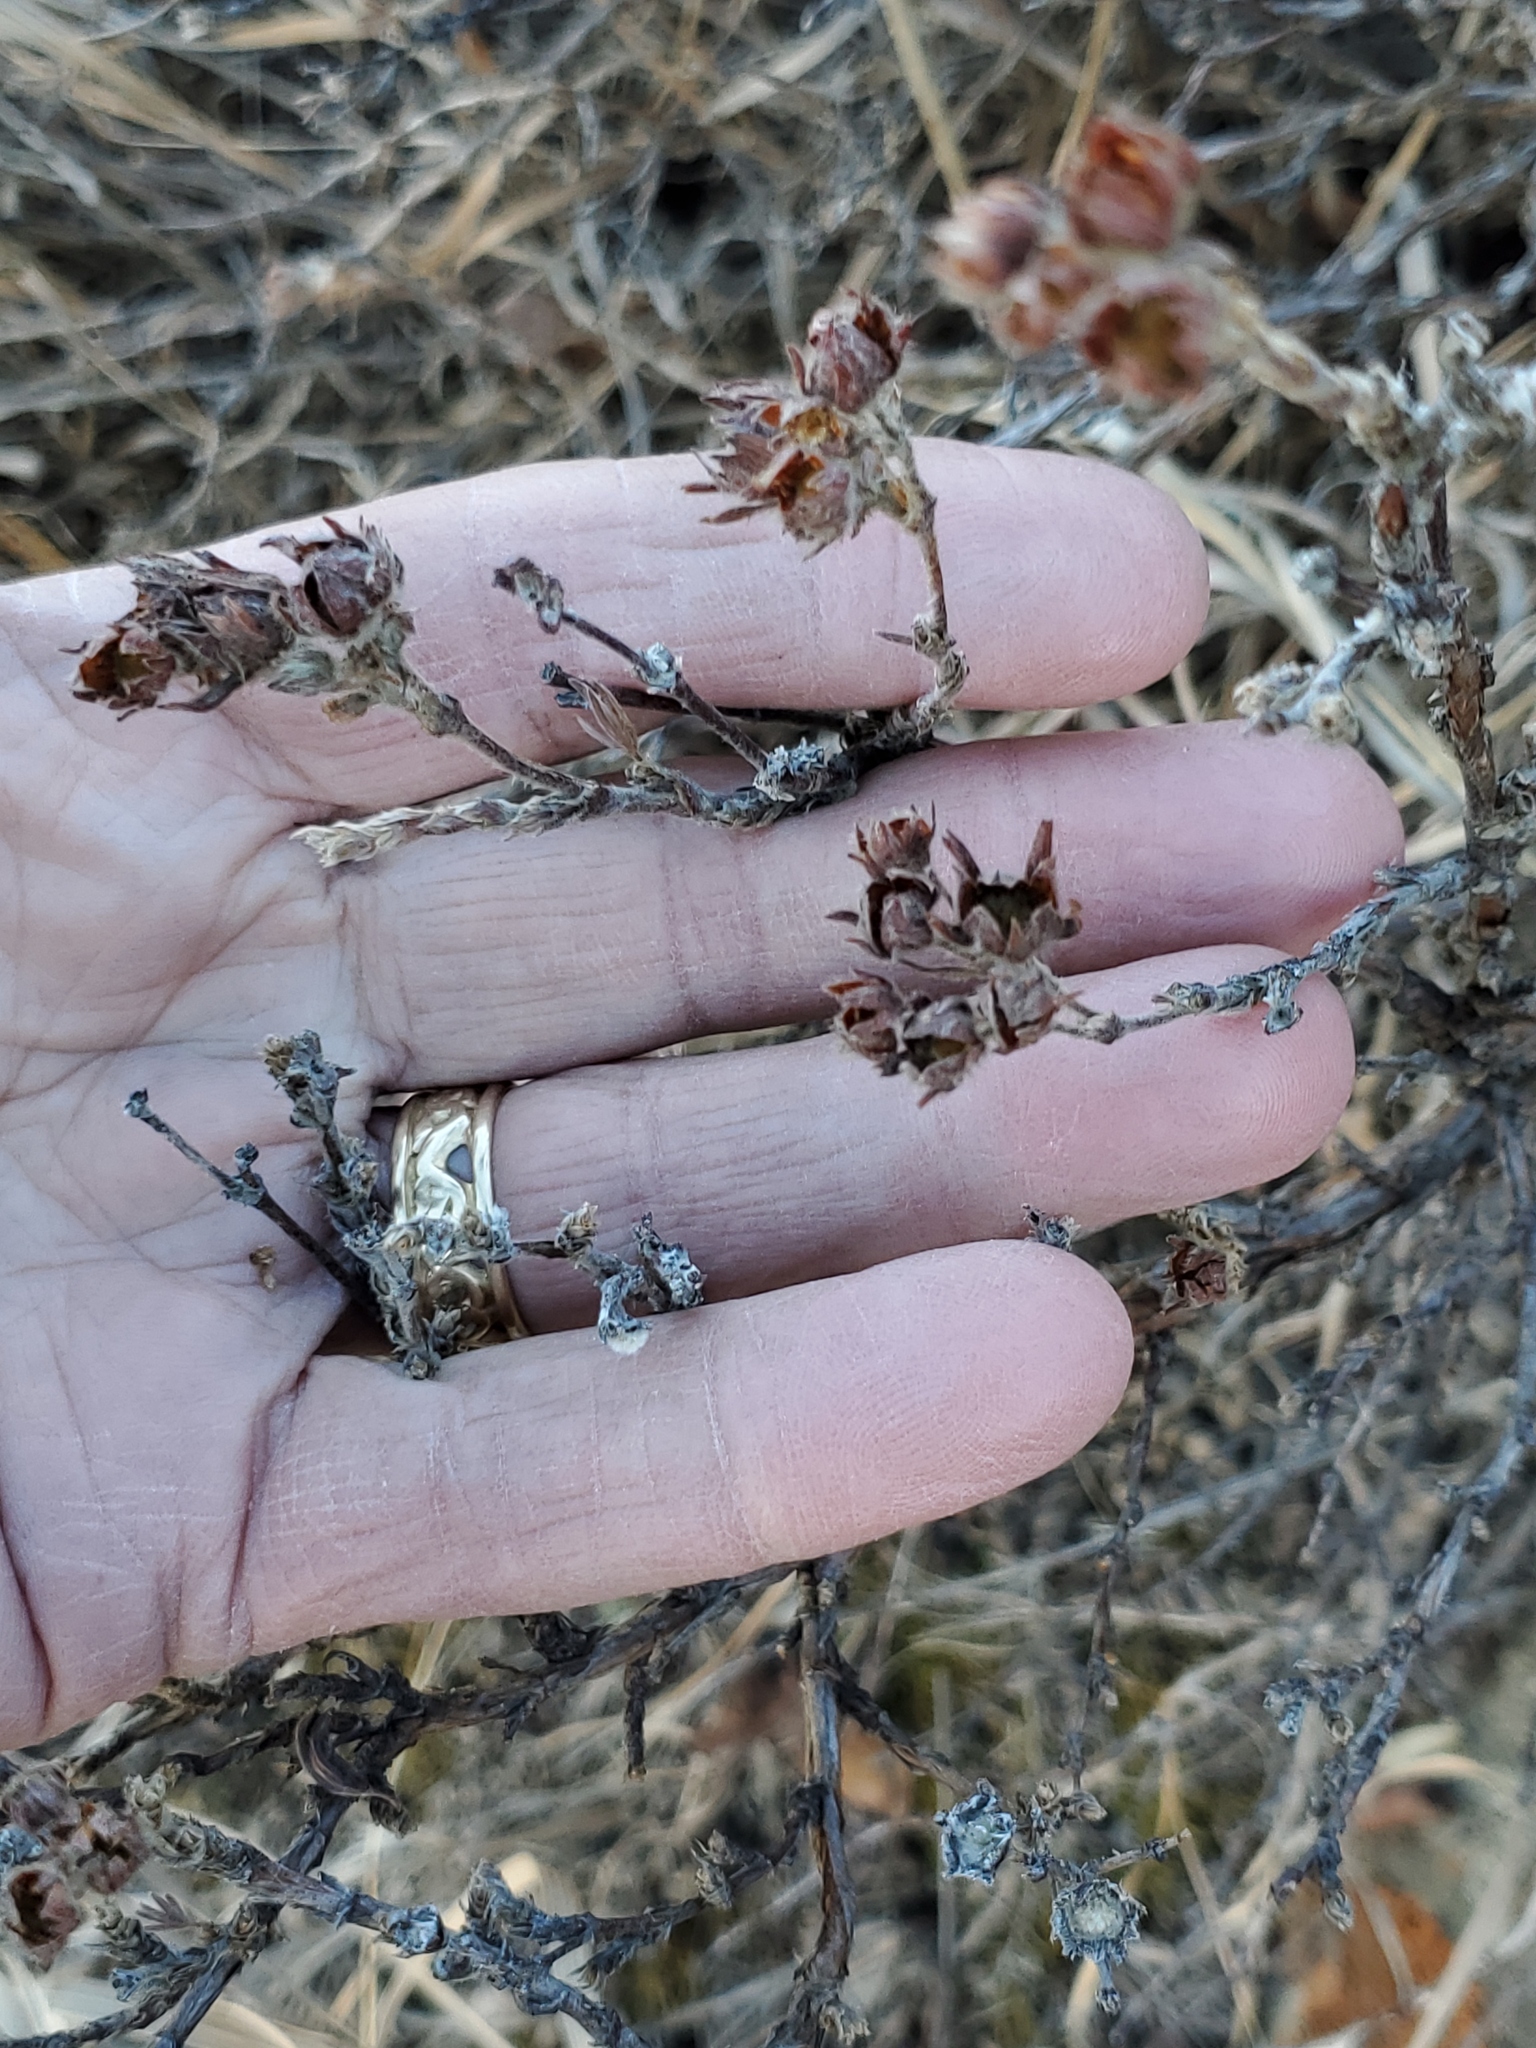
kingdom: Plantae
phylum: Tracheophyta
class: Magnoliopsida
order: Rosales
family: Rosaceae
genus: Dasiphora
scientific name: Dasiphora fruticosa
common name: Shrubby cinquefoil
